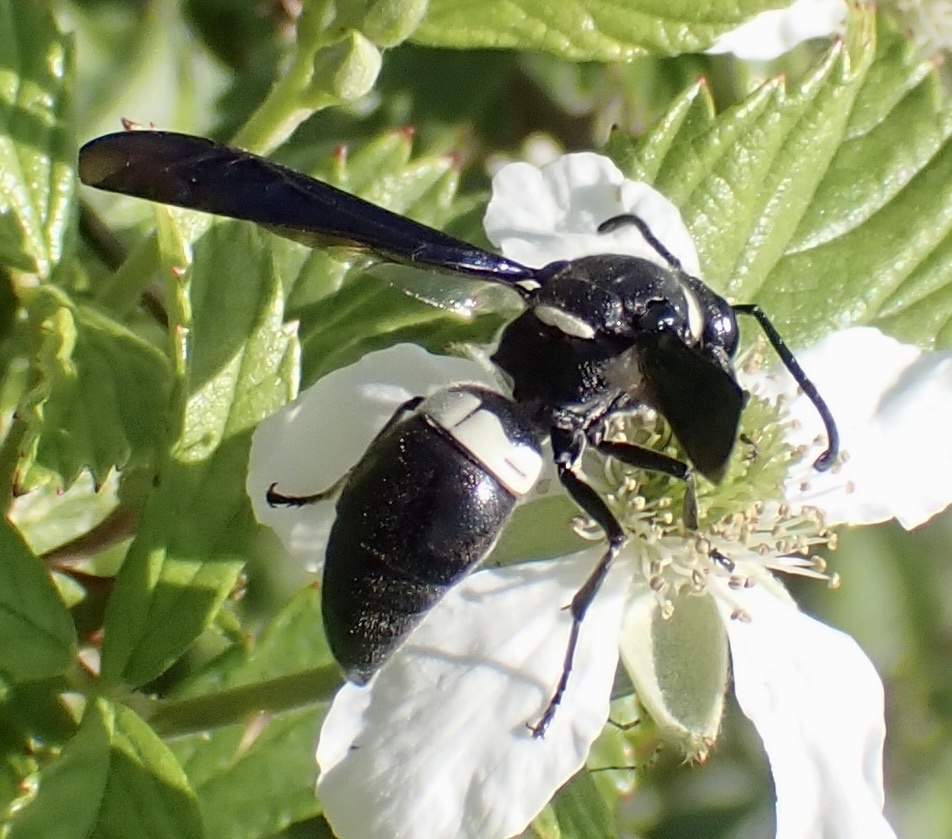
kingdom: Animalia
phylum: Arthropoda
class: Insecta
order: Hymenoptera
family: Eumenidae
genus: Monobia
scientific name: Monobia quadridens
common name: Four-toothed mason wasp
